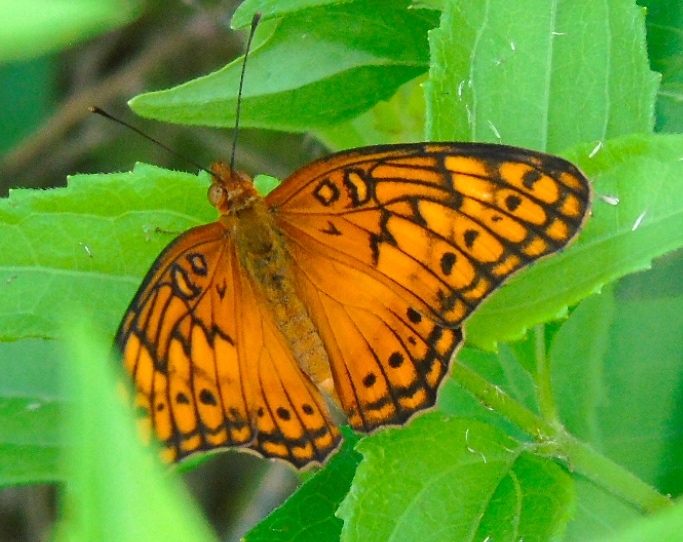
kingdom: Animalia
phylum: Arthropoda
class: Insecta
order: Lepidoptera
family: Nymphalidae
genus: Euptoieta
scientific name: Euptoieta hegesia
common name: Mexican fritillary
